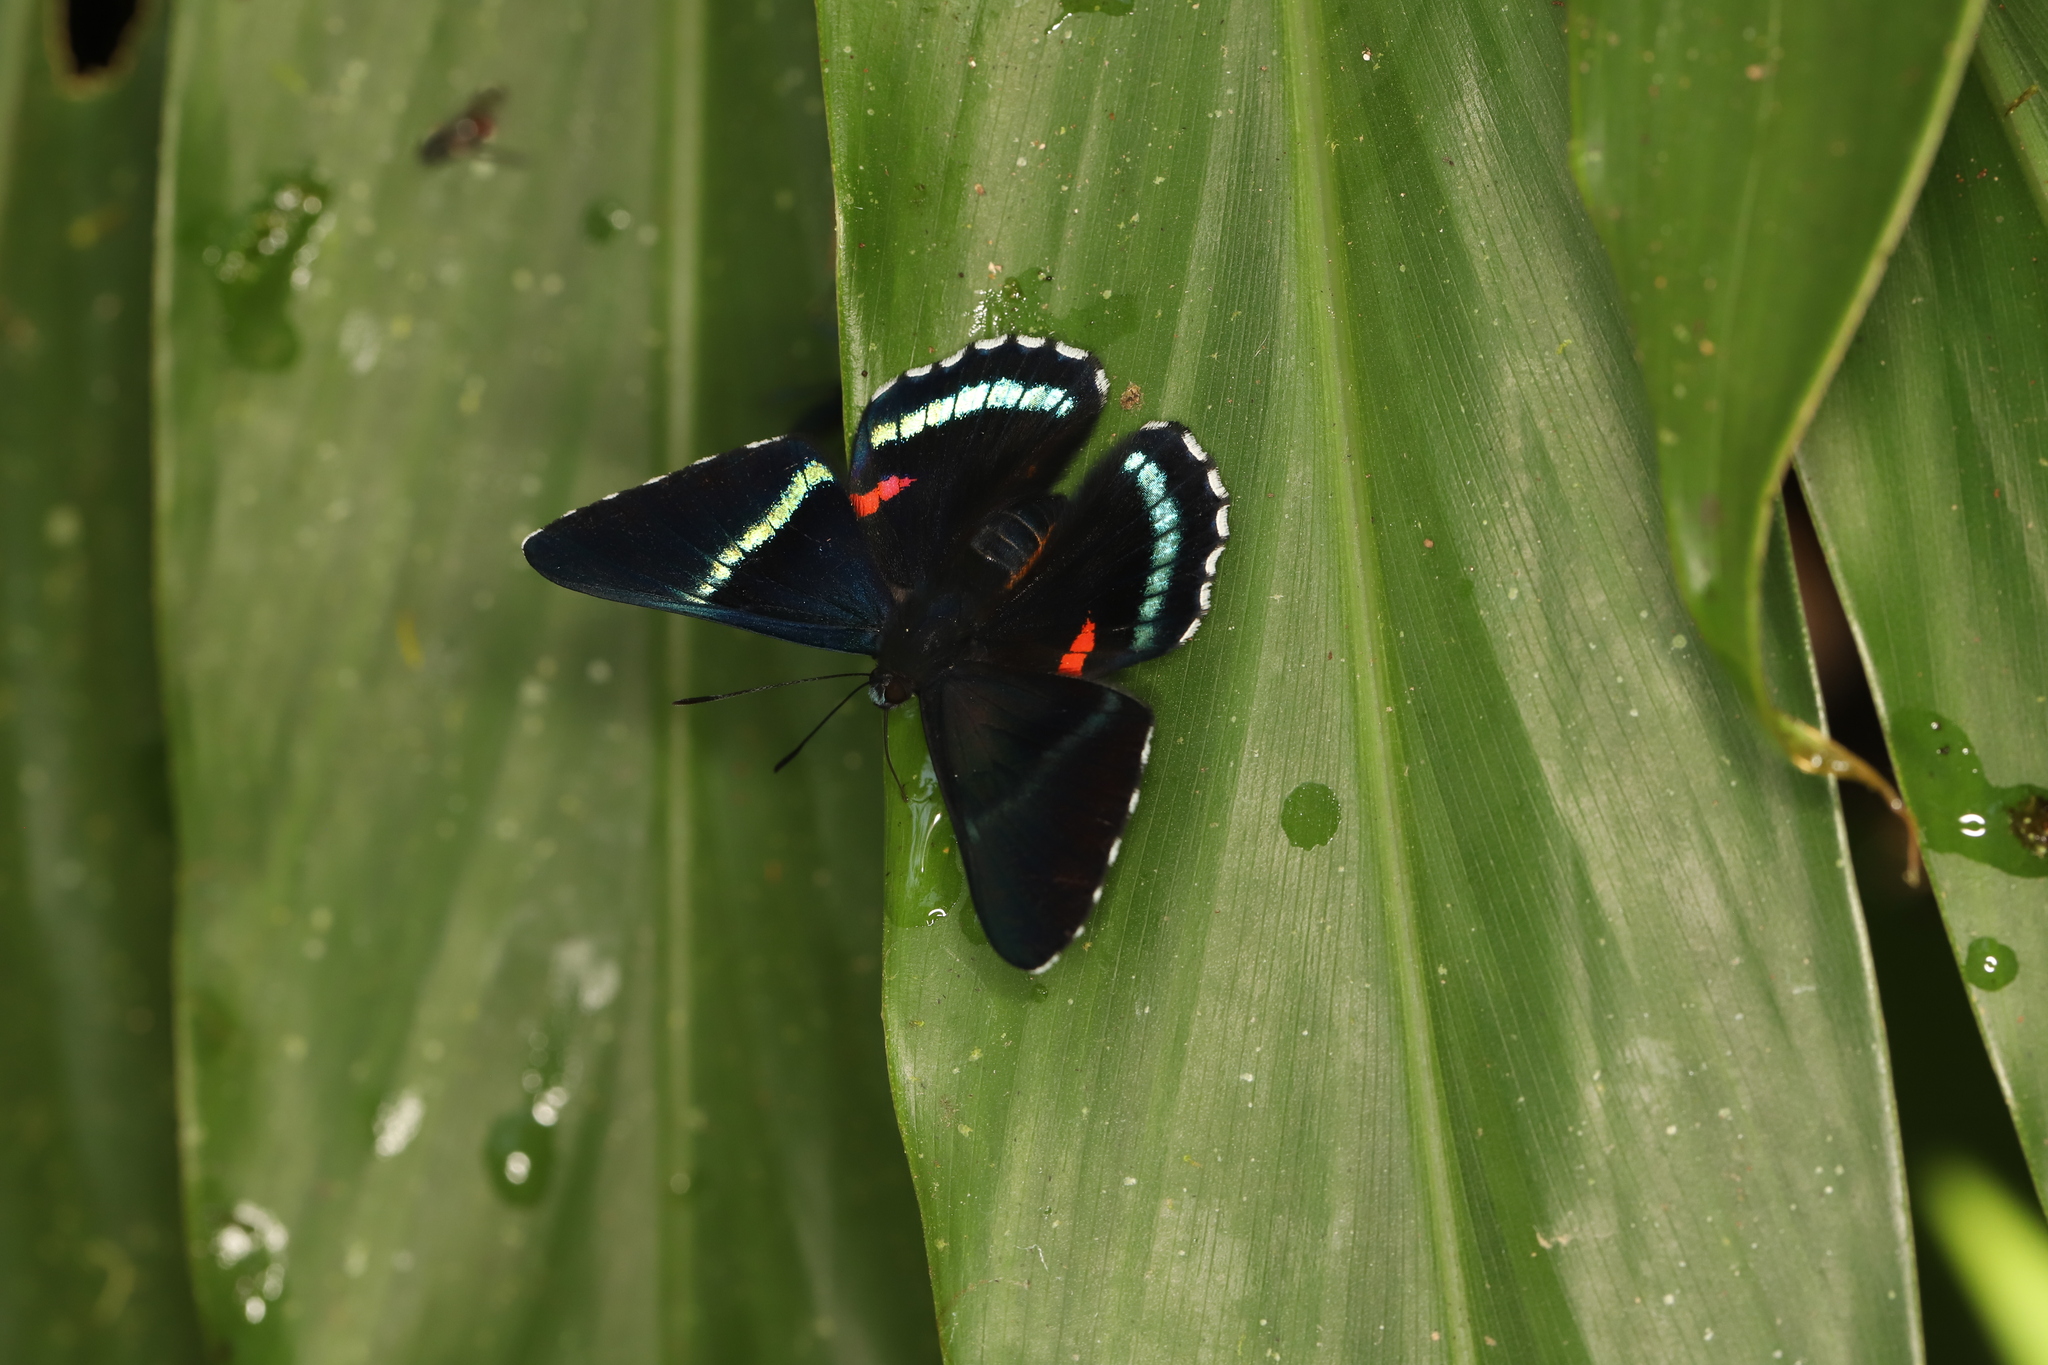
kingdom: Animalia
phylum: Arthropoda
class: Insecta
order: Lepidoptera
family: Lycaenidae
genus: Necyria
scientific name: Necyria bellona
